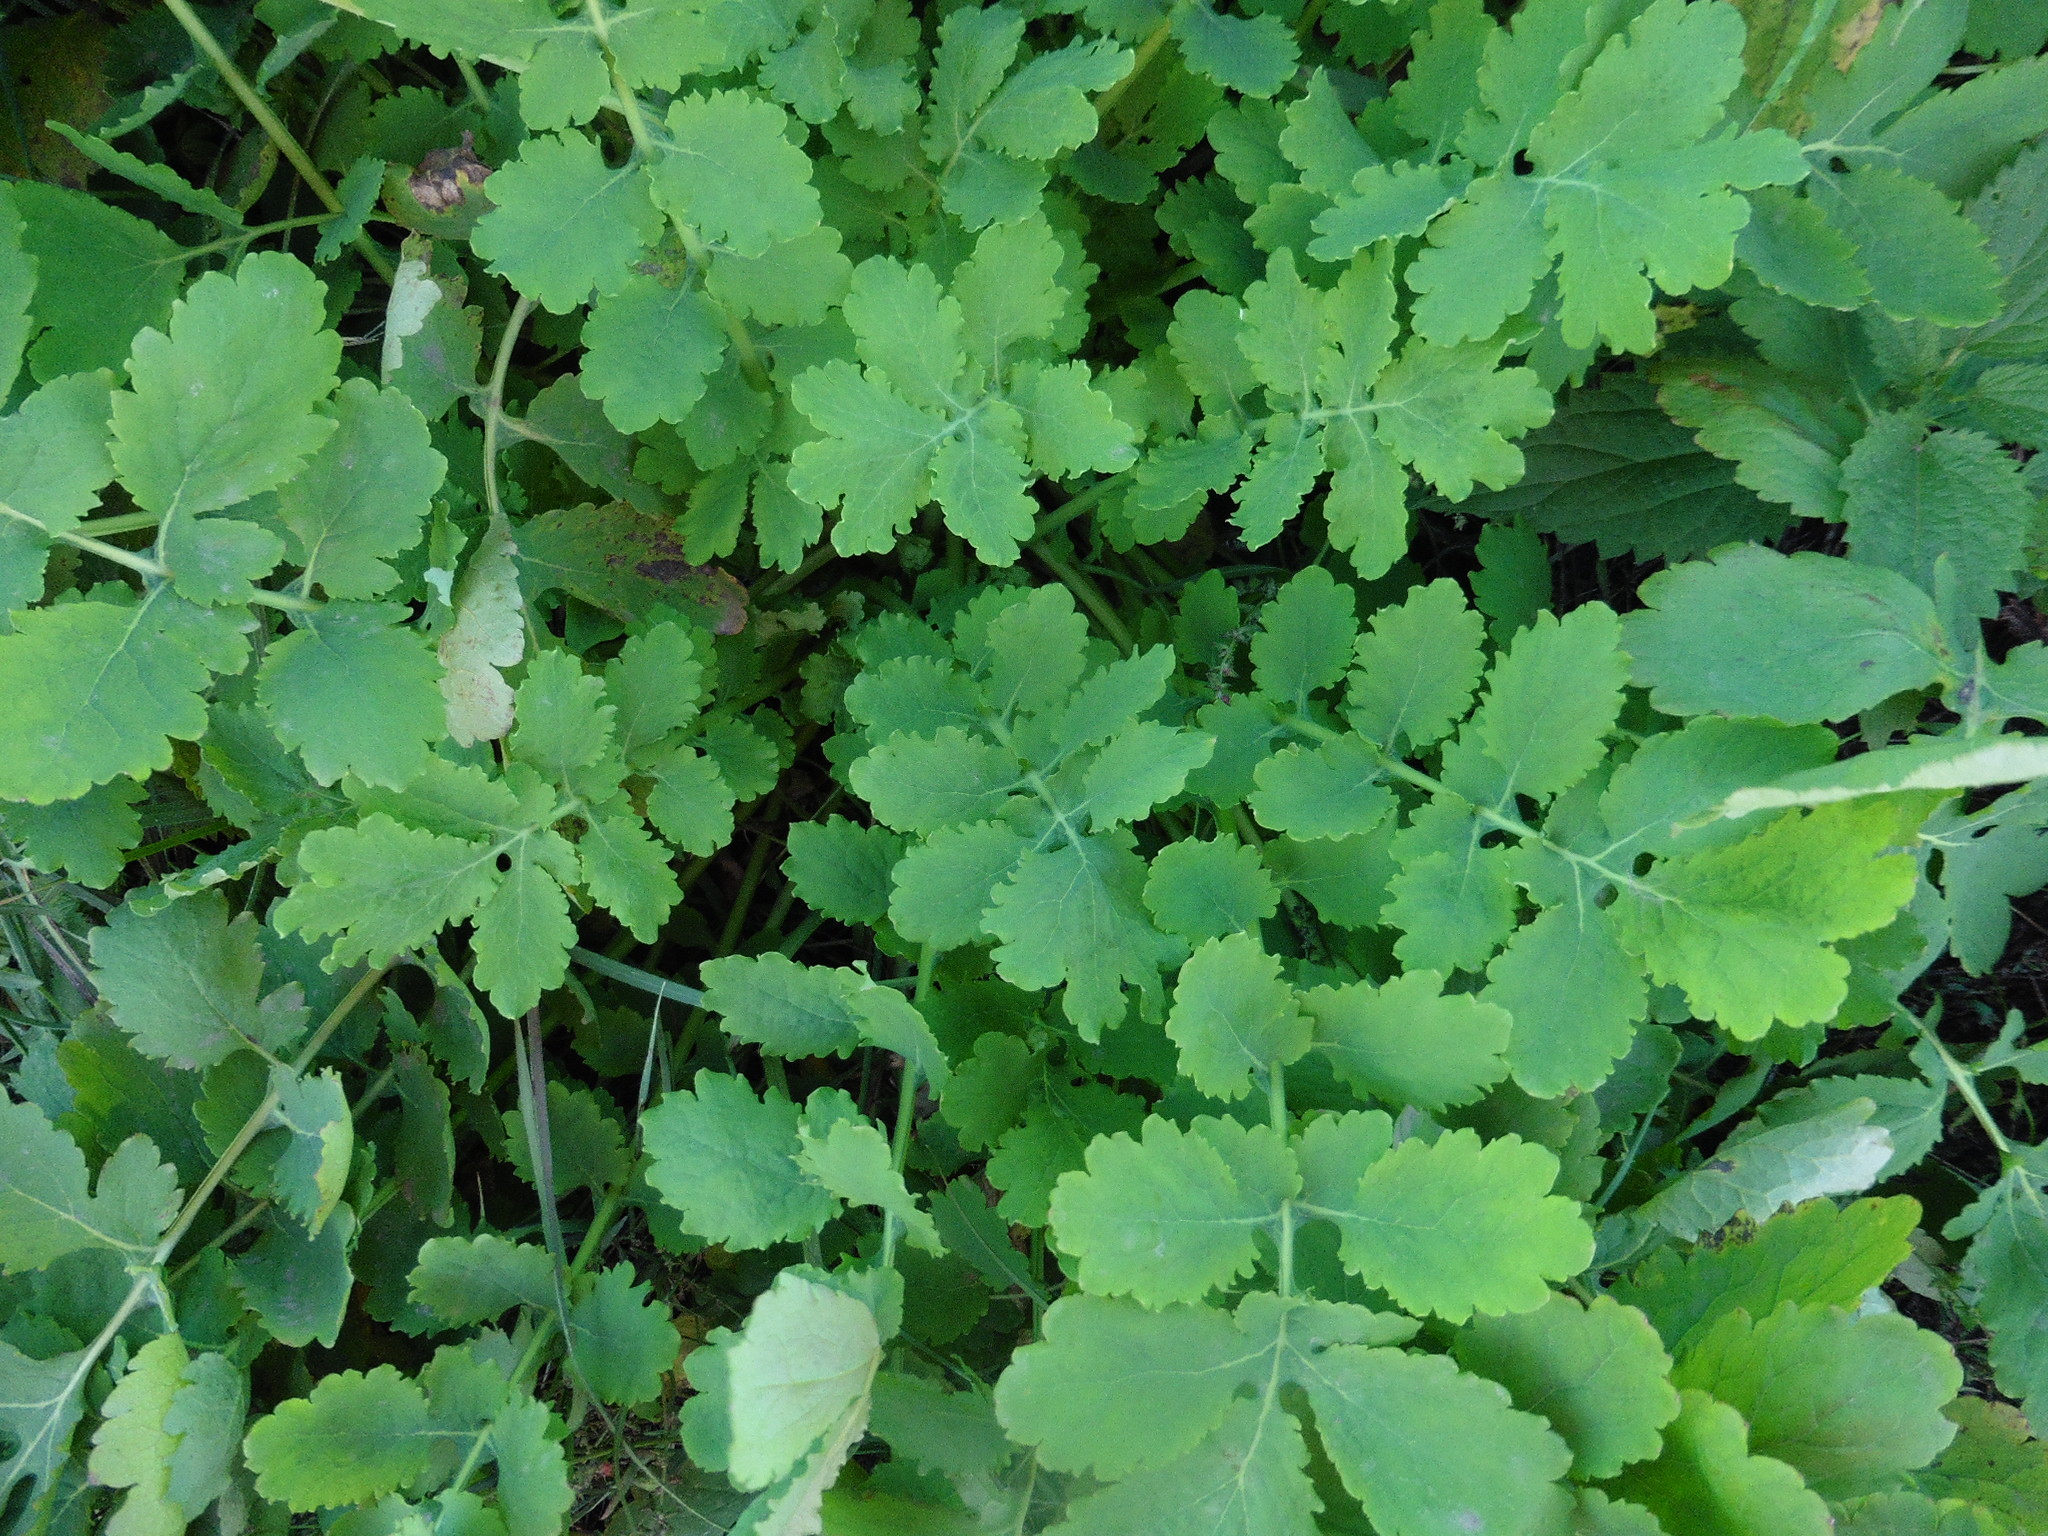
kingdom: Plantae
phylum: Tracheophyta
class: Magnoliopsida
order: Ranunculales
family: Papaveraceae
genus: Chelidonium
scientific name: Chelidonium majus
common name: Greater celandine
